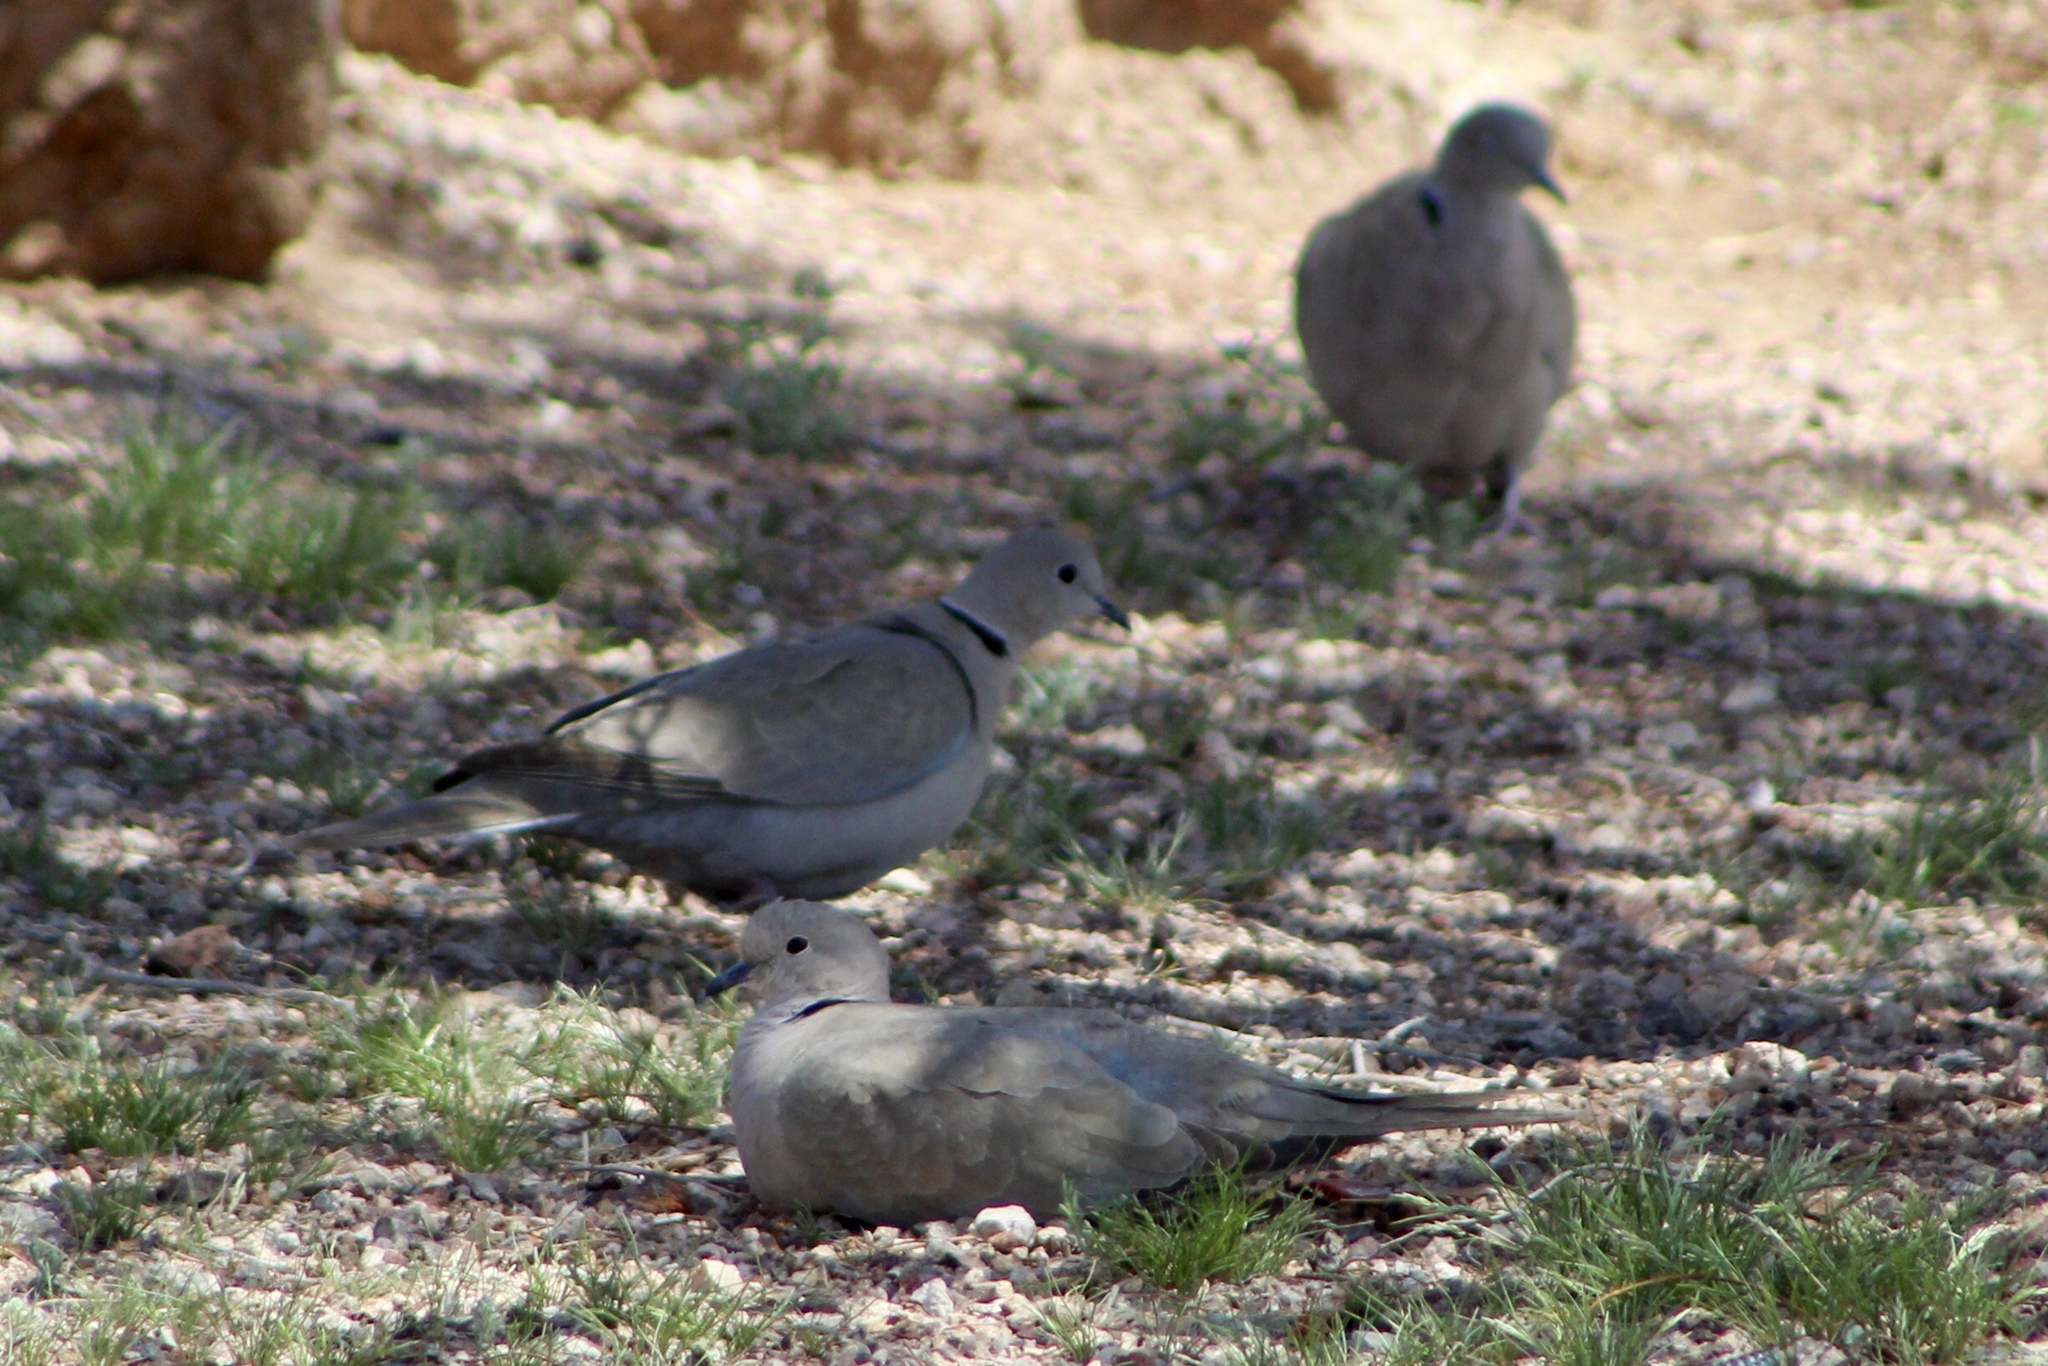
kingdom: Animalia
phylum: Chordata
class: Aves
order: Columbiformes
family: Columbidae
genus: Streptopelia
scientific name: Streptopelia decaocto
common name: Eurasian collared dove
